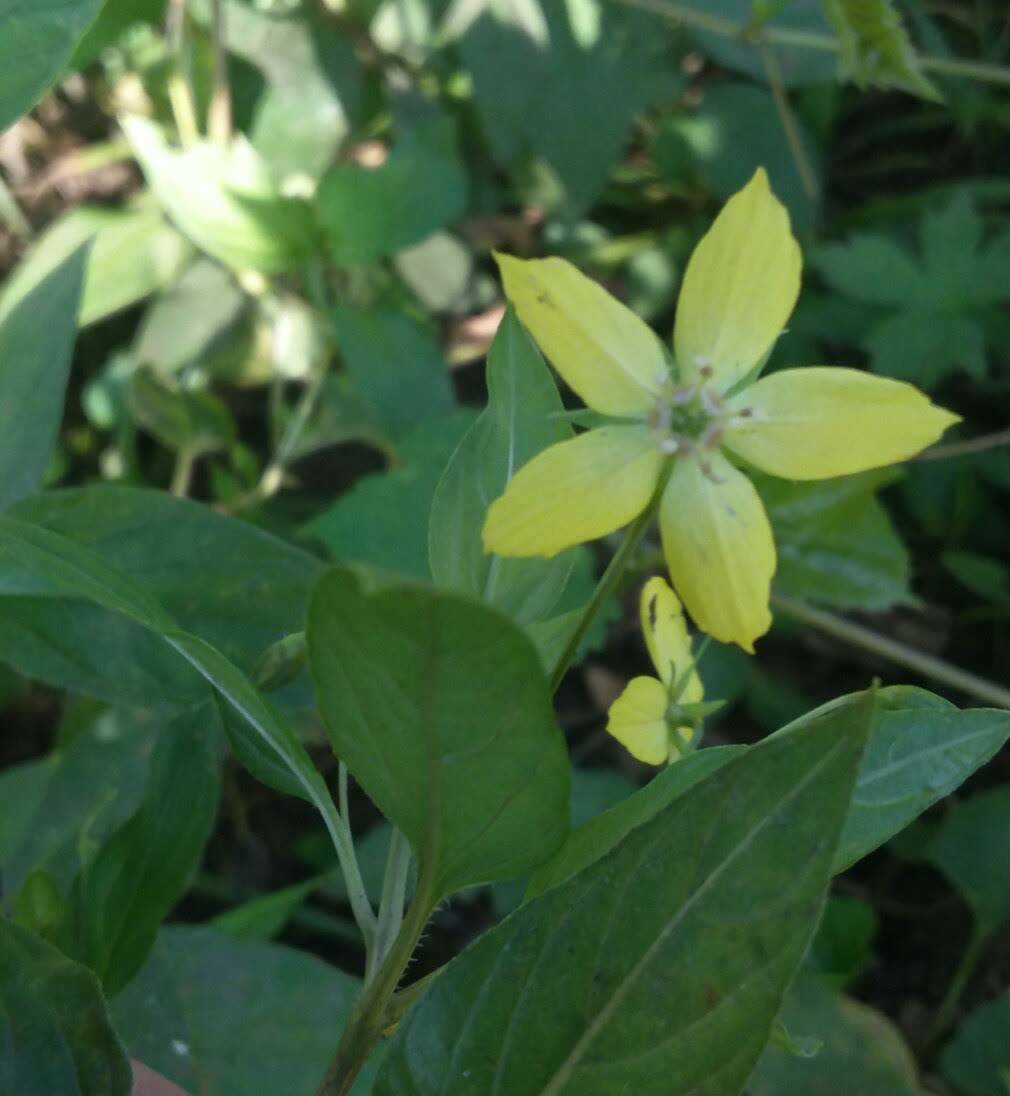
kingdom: Plantae
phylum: Tracheophyta
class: Magnoliopsida
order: Ericales
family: Primulaceae
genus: Lysimachia
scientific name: Lysimachia ciliata
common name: Fringed loosestrife
